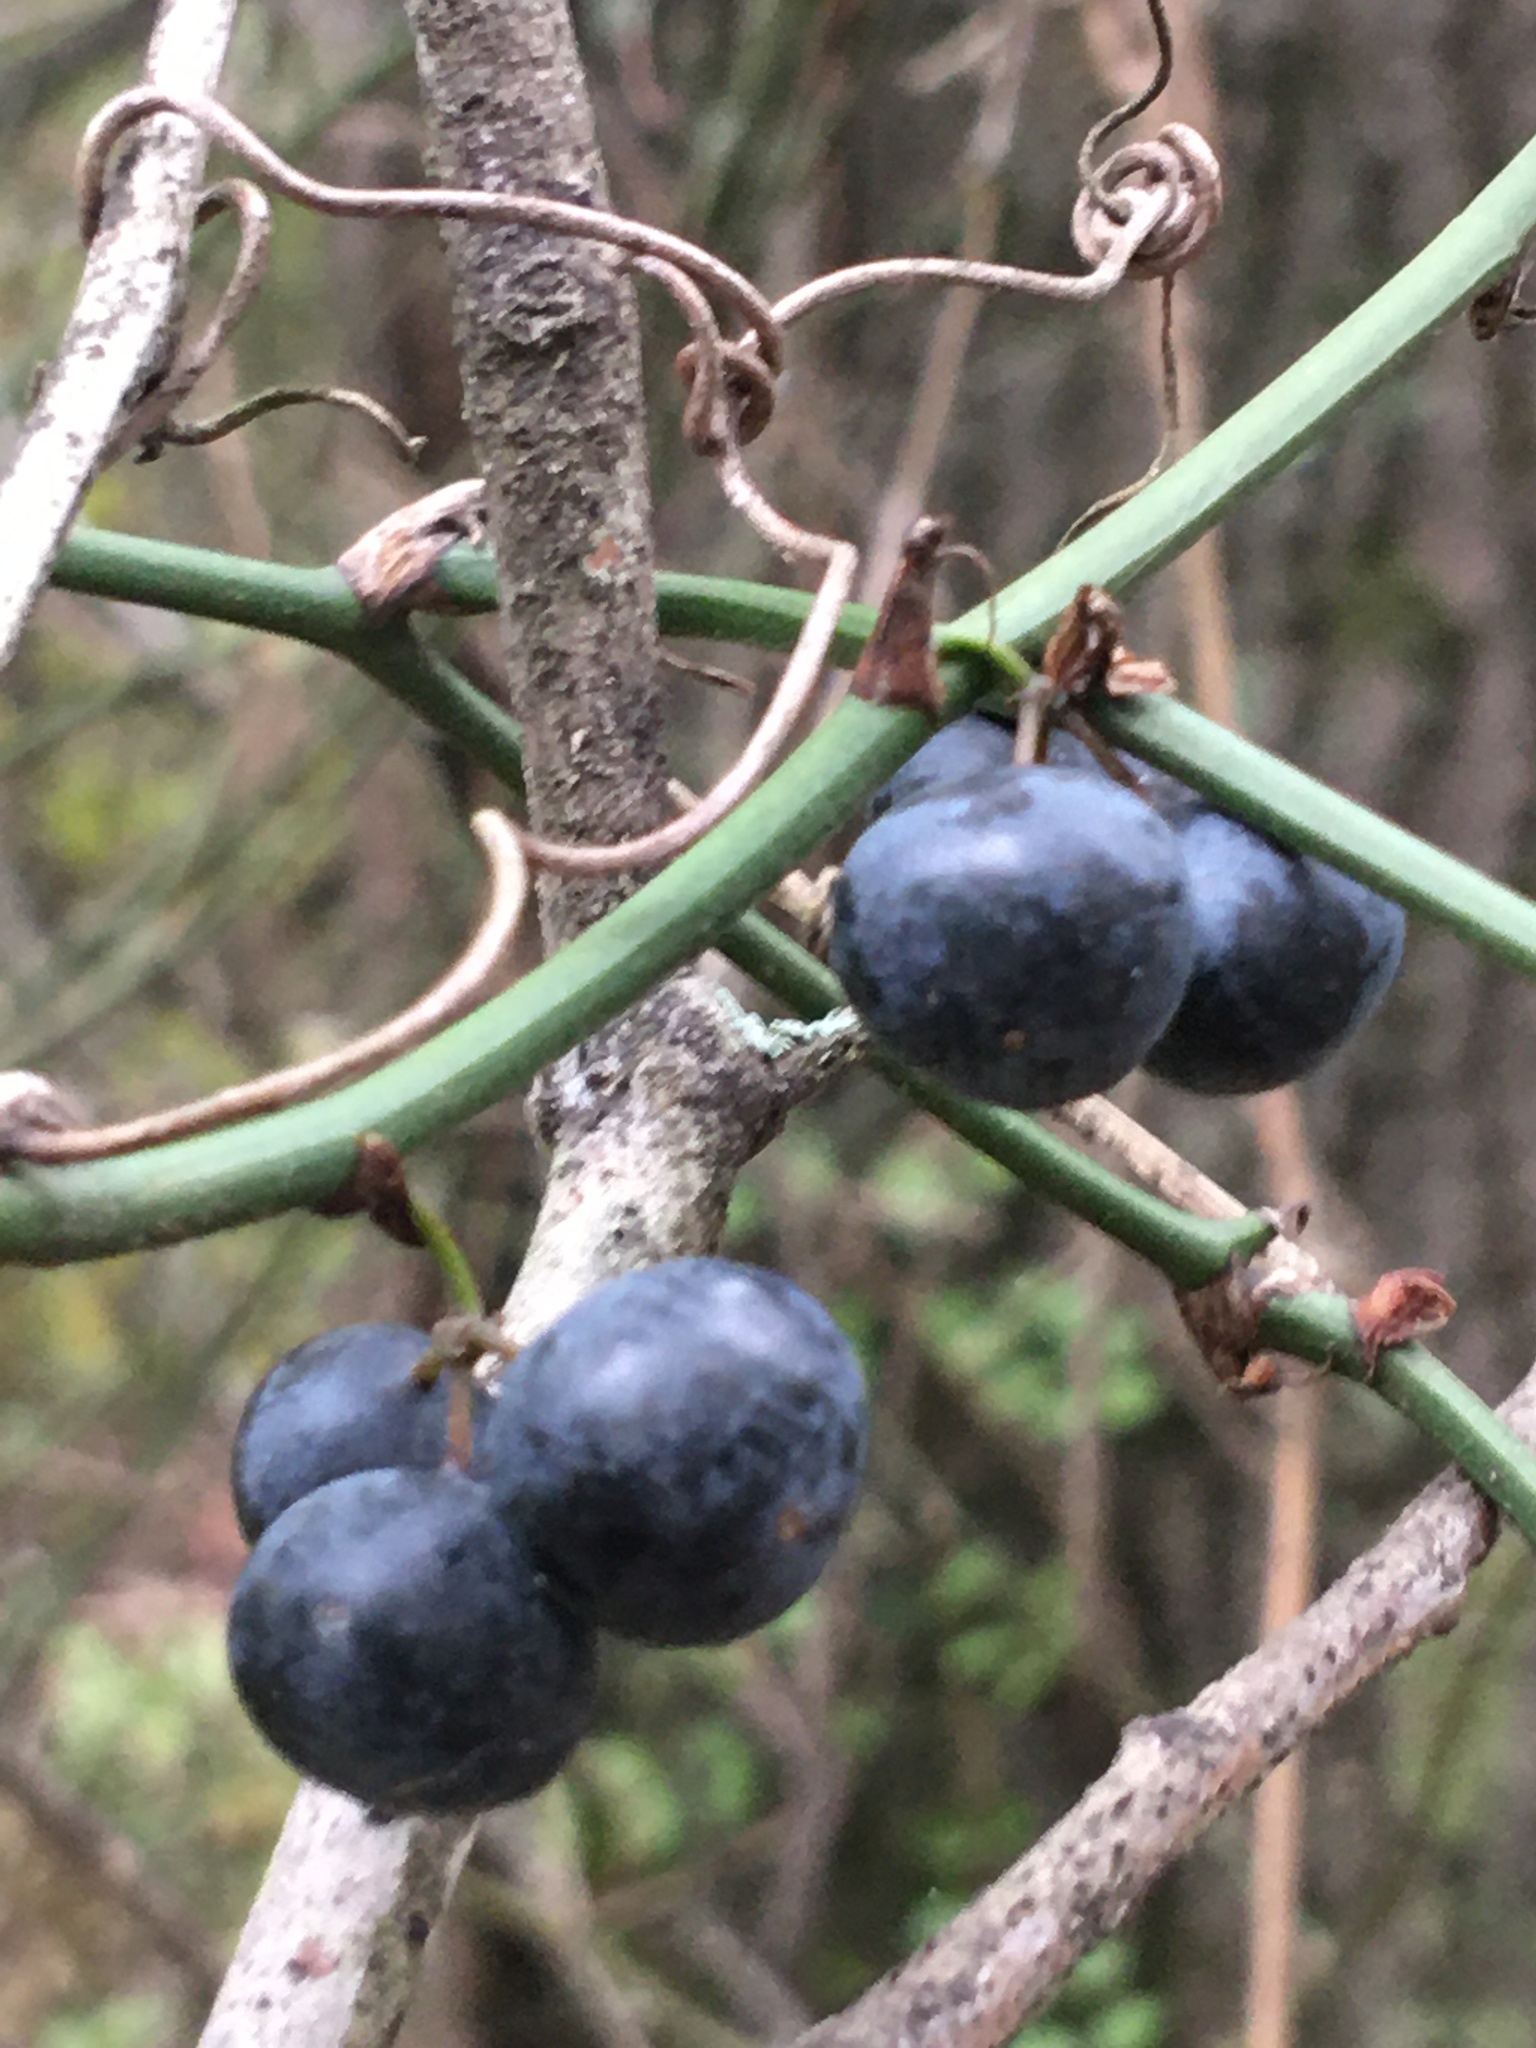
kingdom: Plantae
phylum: Tracheophyta
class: Liliopsida
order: Liliales
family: Smilacaceae
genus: Smilax
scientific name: Smilax rotundifolia
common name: Bullbriar
